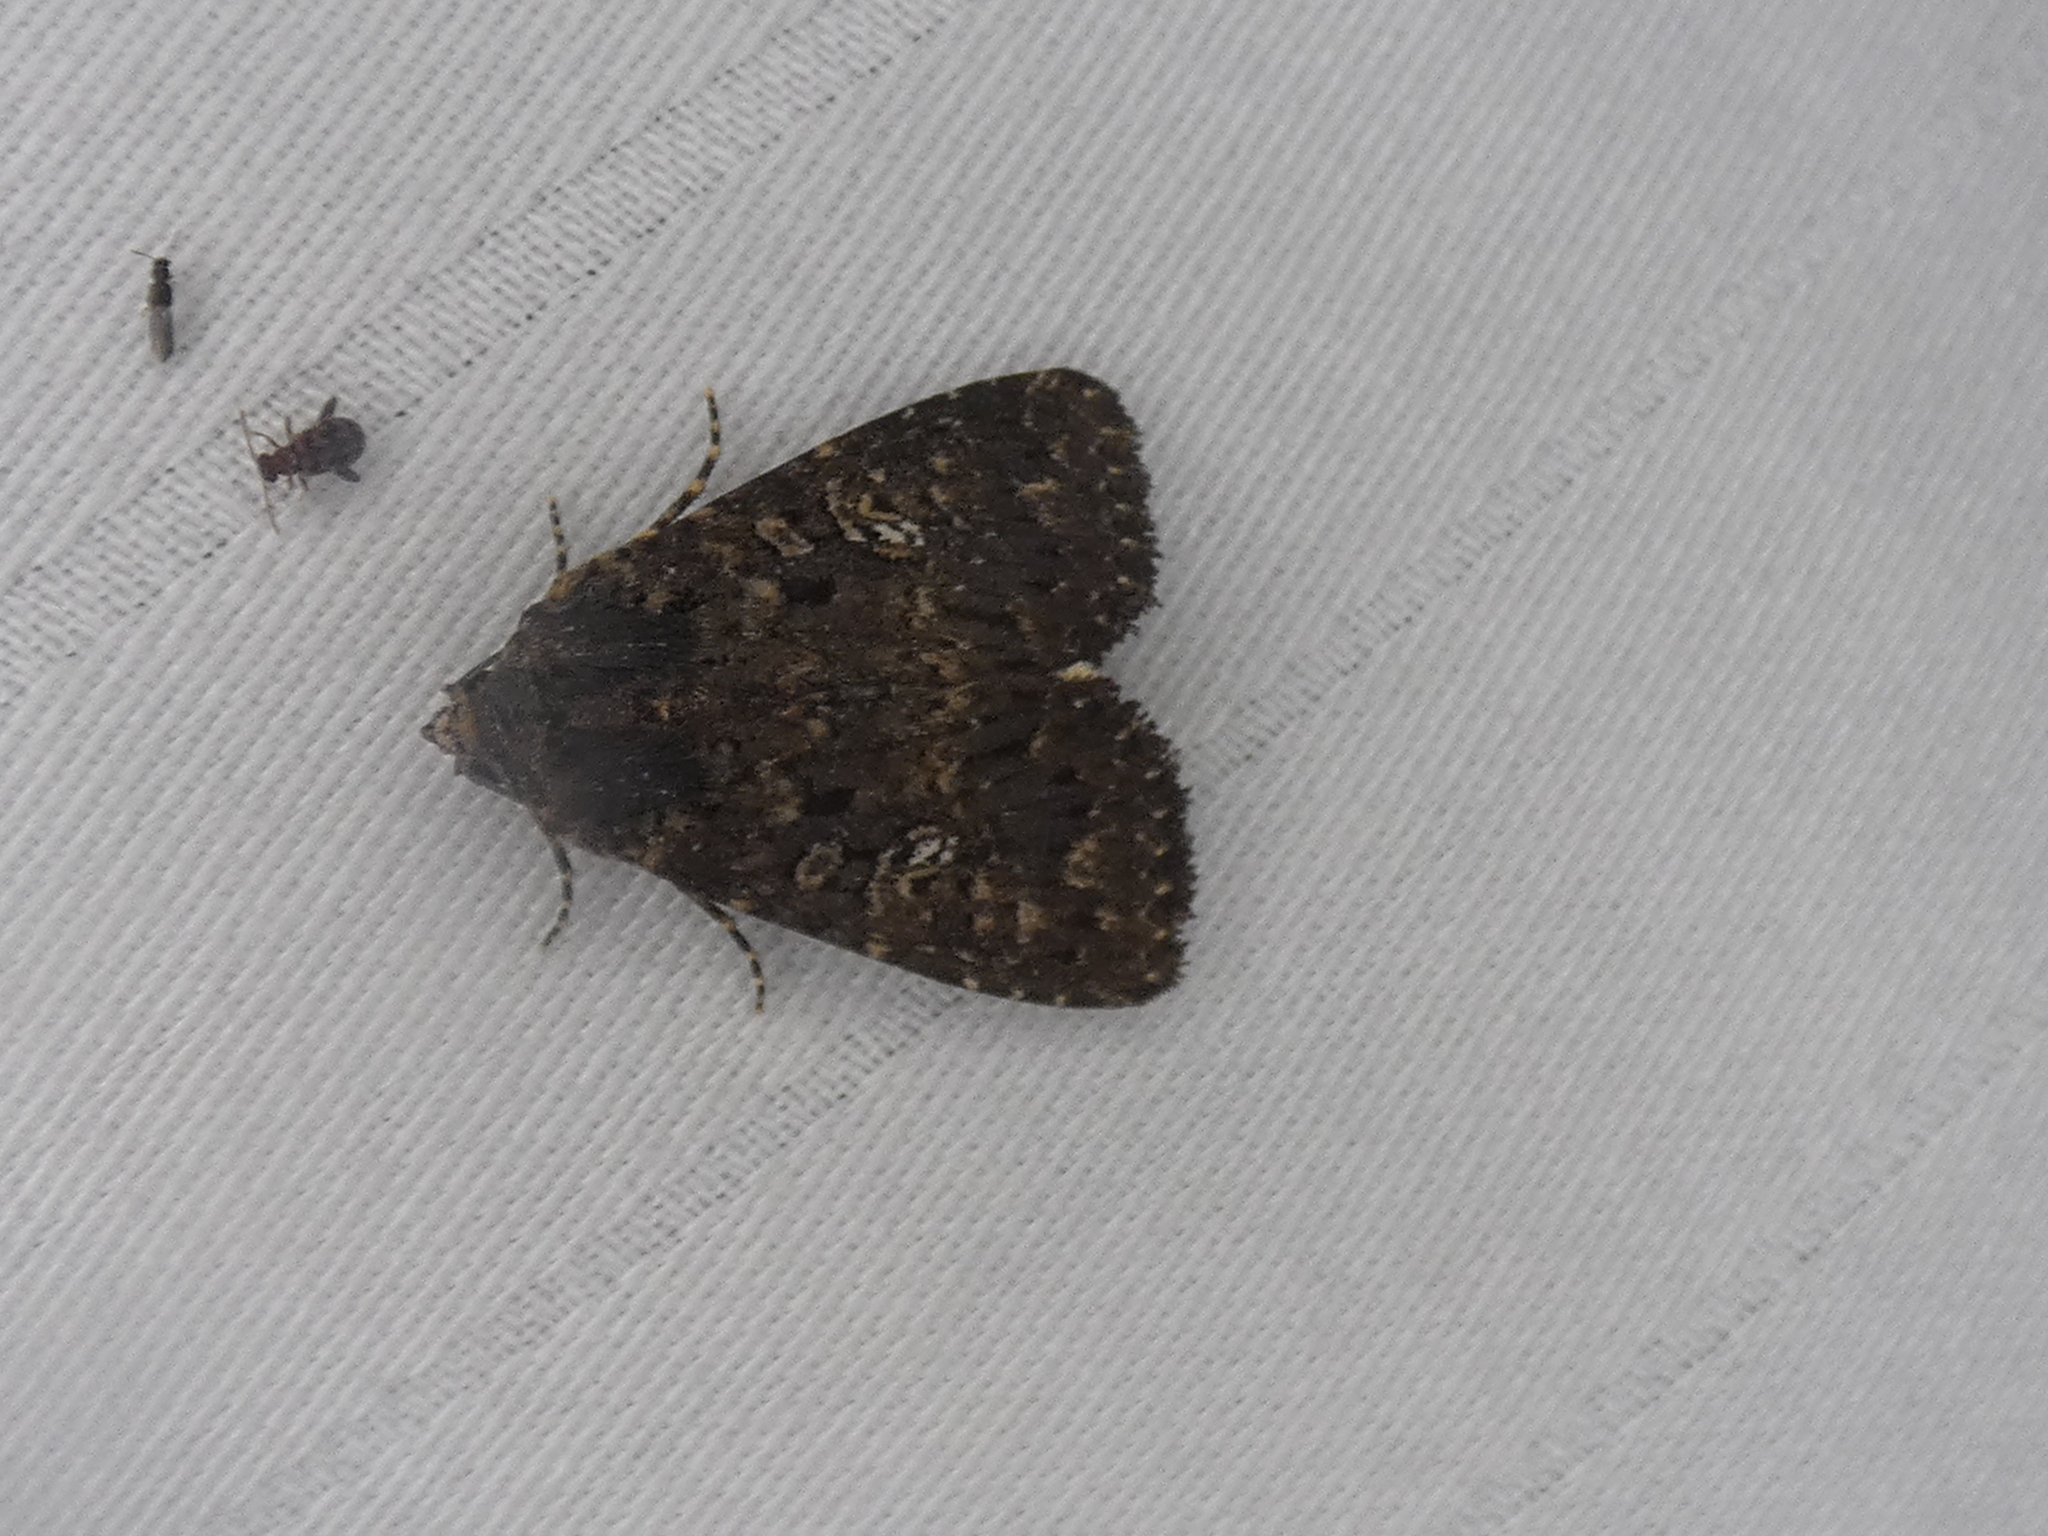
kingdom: Animalia
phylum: Arthropoda
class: Insecta
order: Lepidoptera
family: Noctuidae
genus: Condica
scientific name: Condica vecors
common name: Dusky groundling
